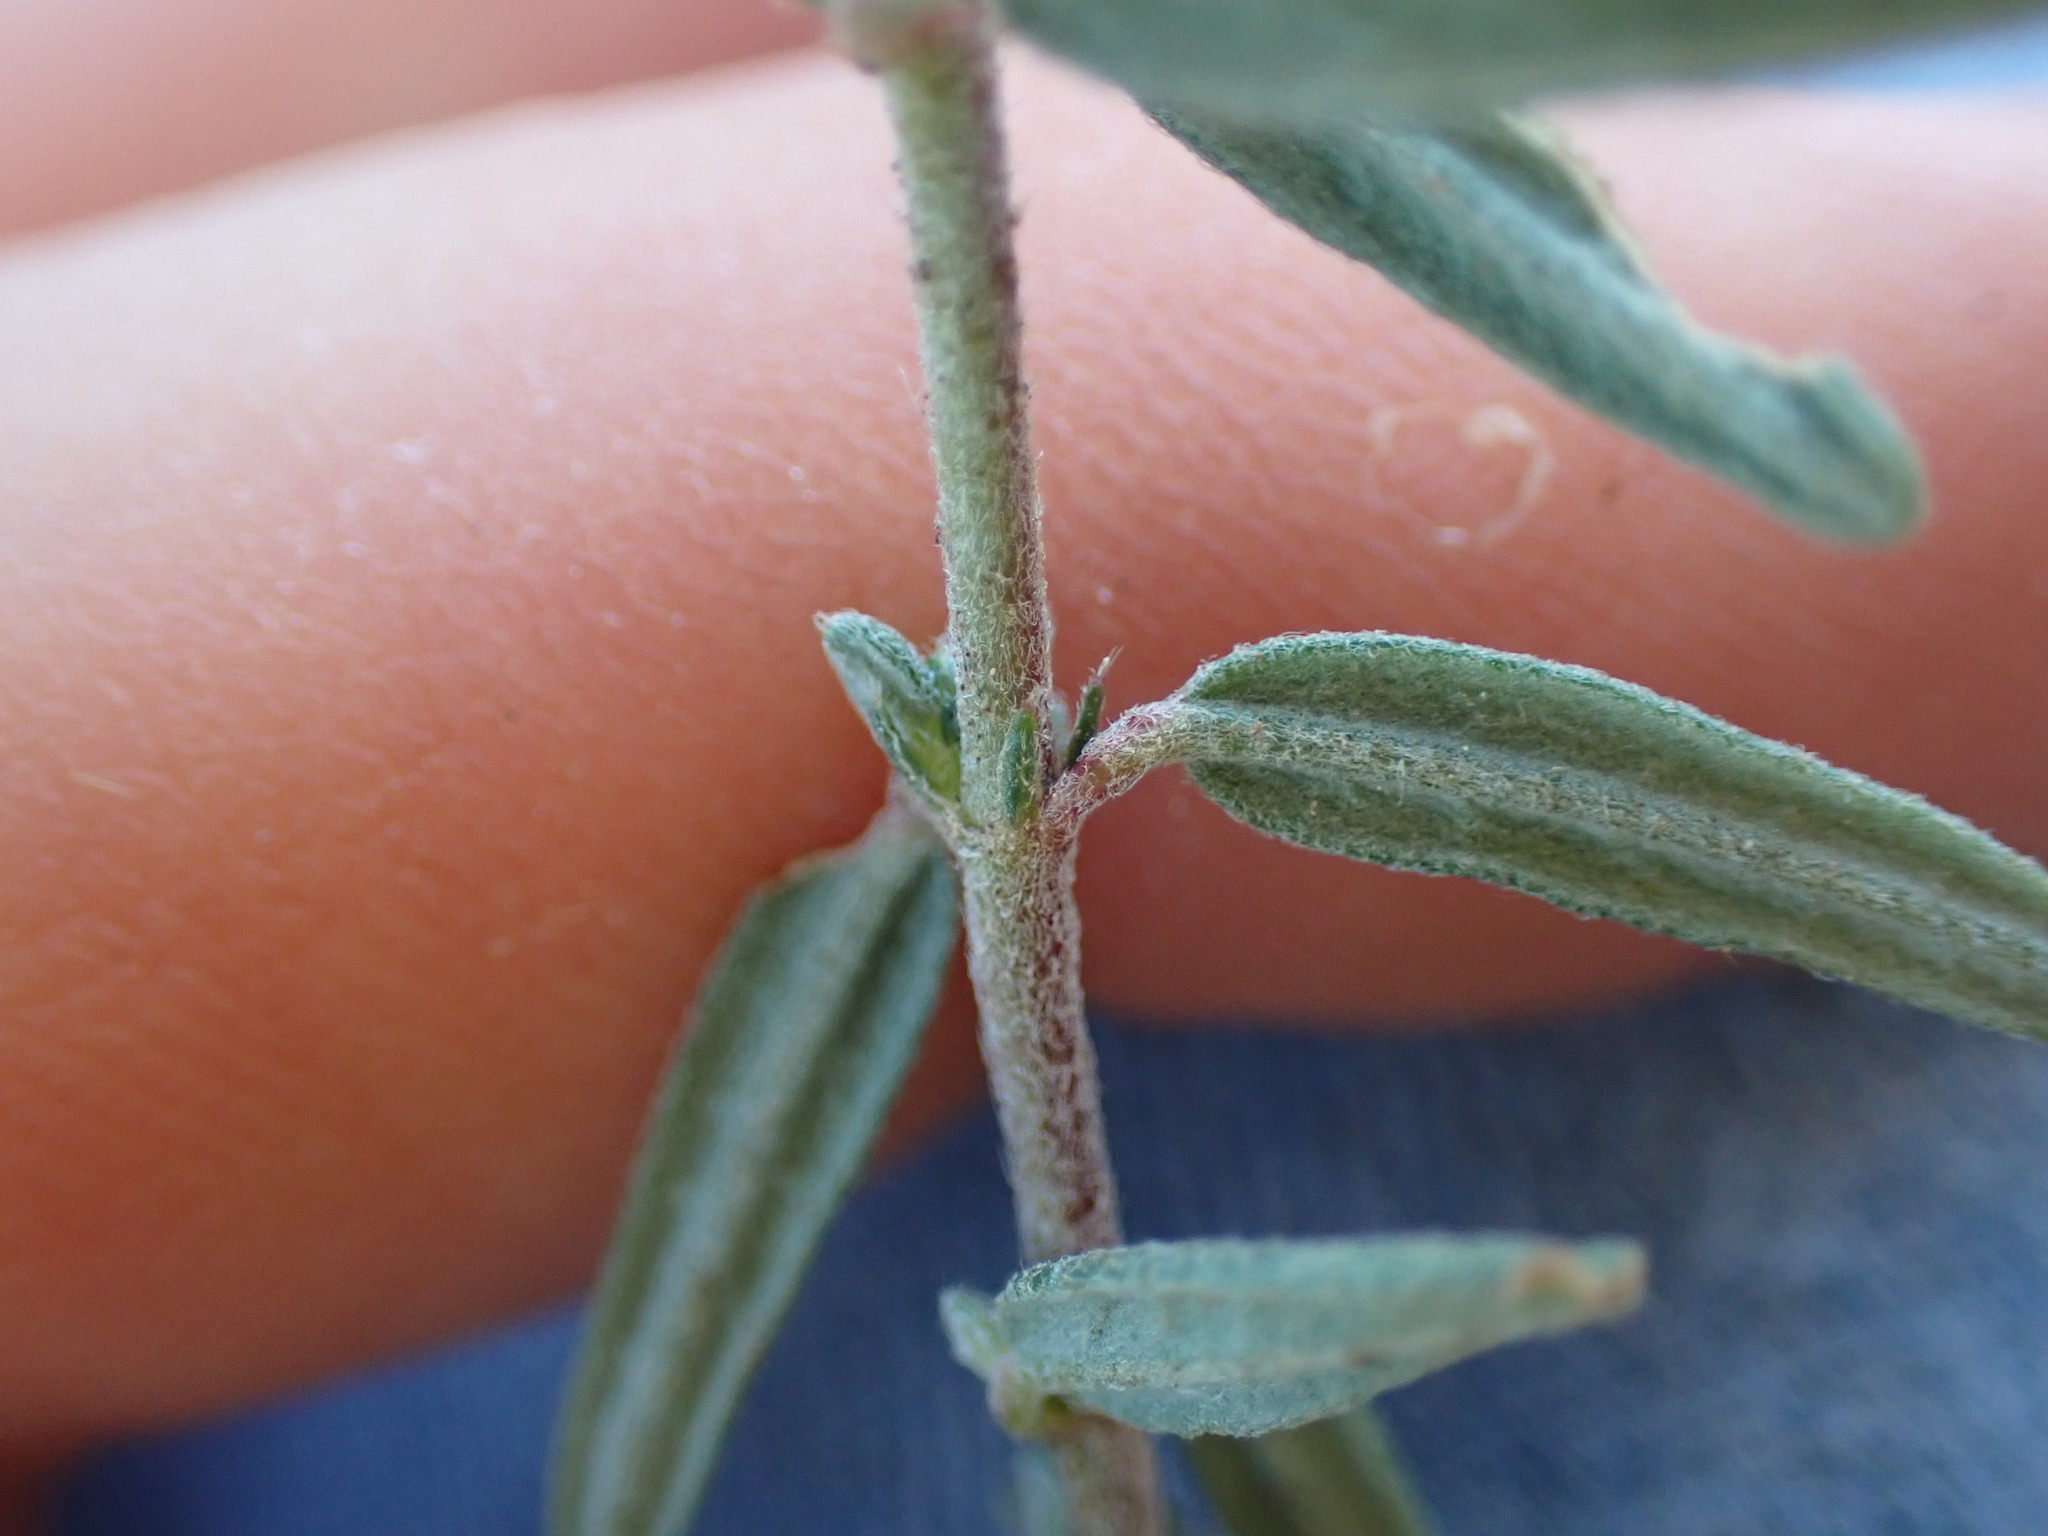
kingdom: Plantae
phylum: Tracheophyta
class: Magnoliopsida
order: Malvales
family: Cistaceae
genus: Helianthemum
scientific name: Helianthemum apenninum
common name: White rock-rose
